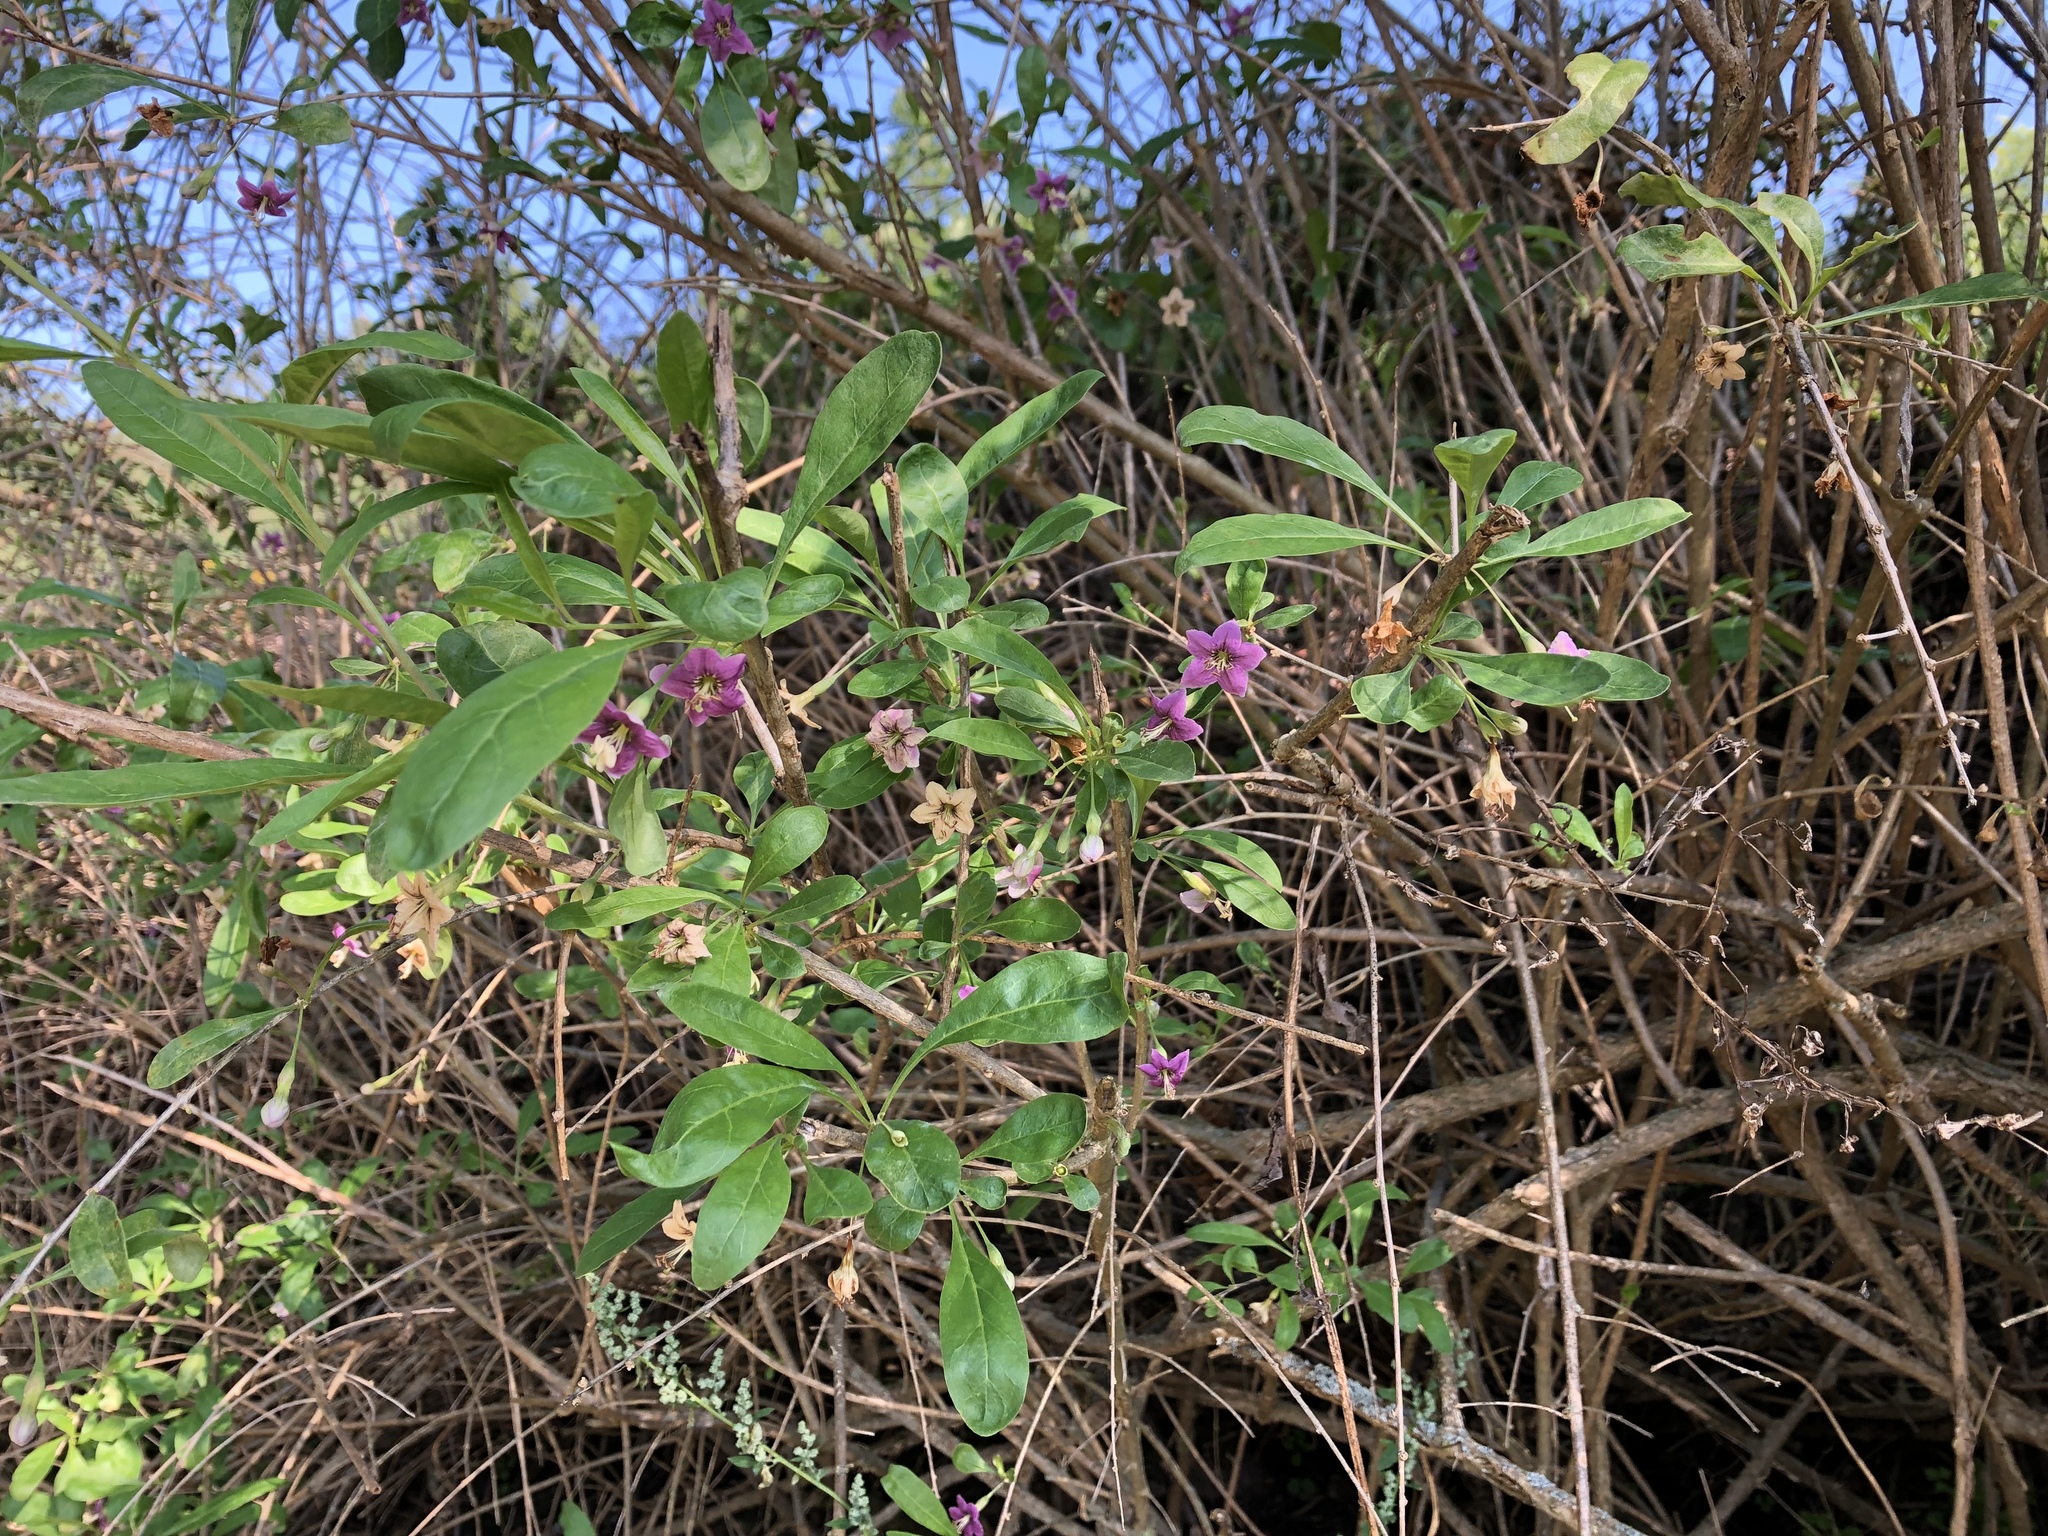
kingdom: Plantae
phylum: Tracheophyta
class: Magnoliopsida
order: Solanales
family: Solanaceae
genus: Lycium
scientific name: Lycium barbarum
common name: Duke of argyll's teaplant
